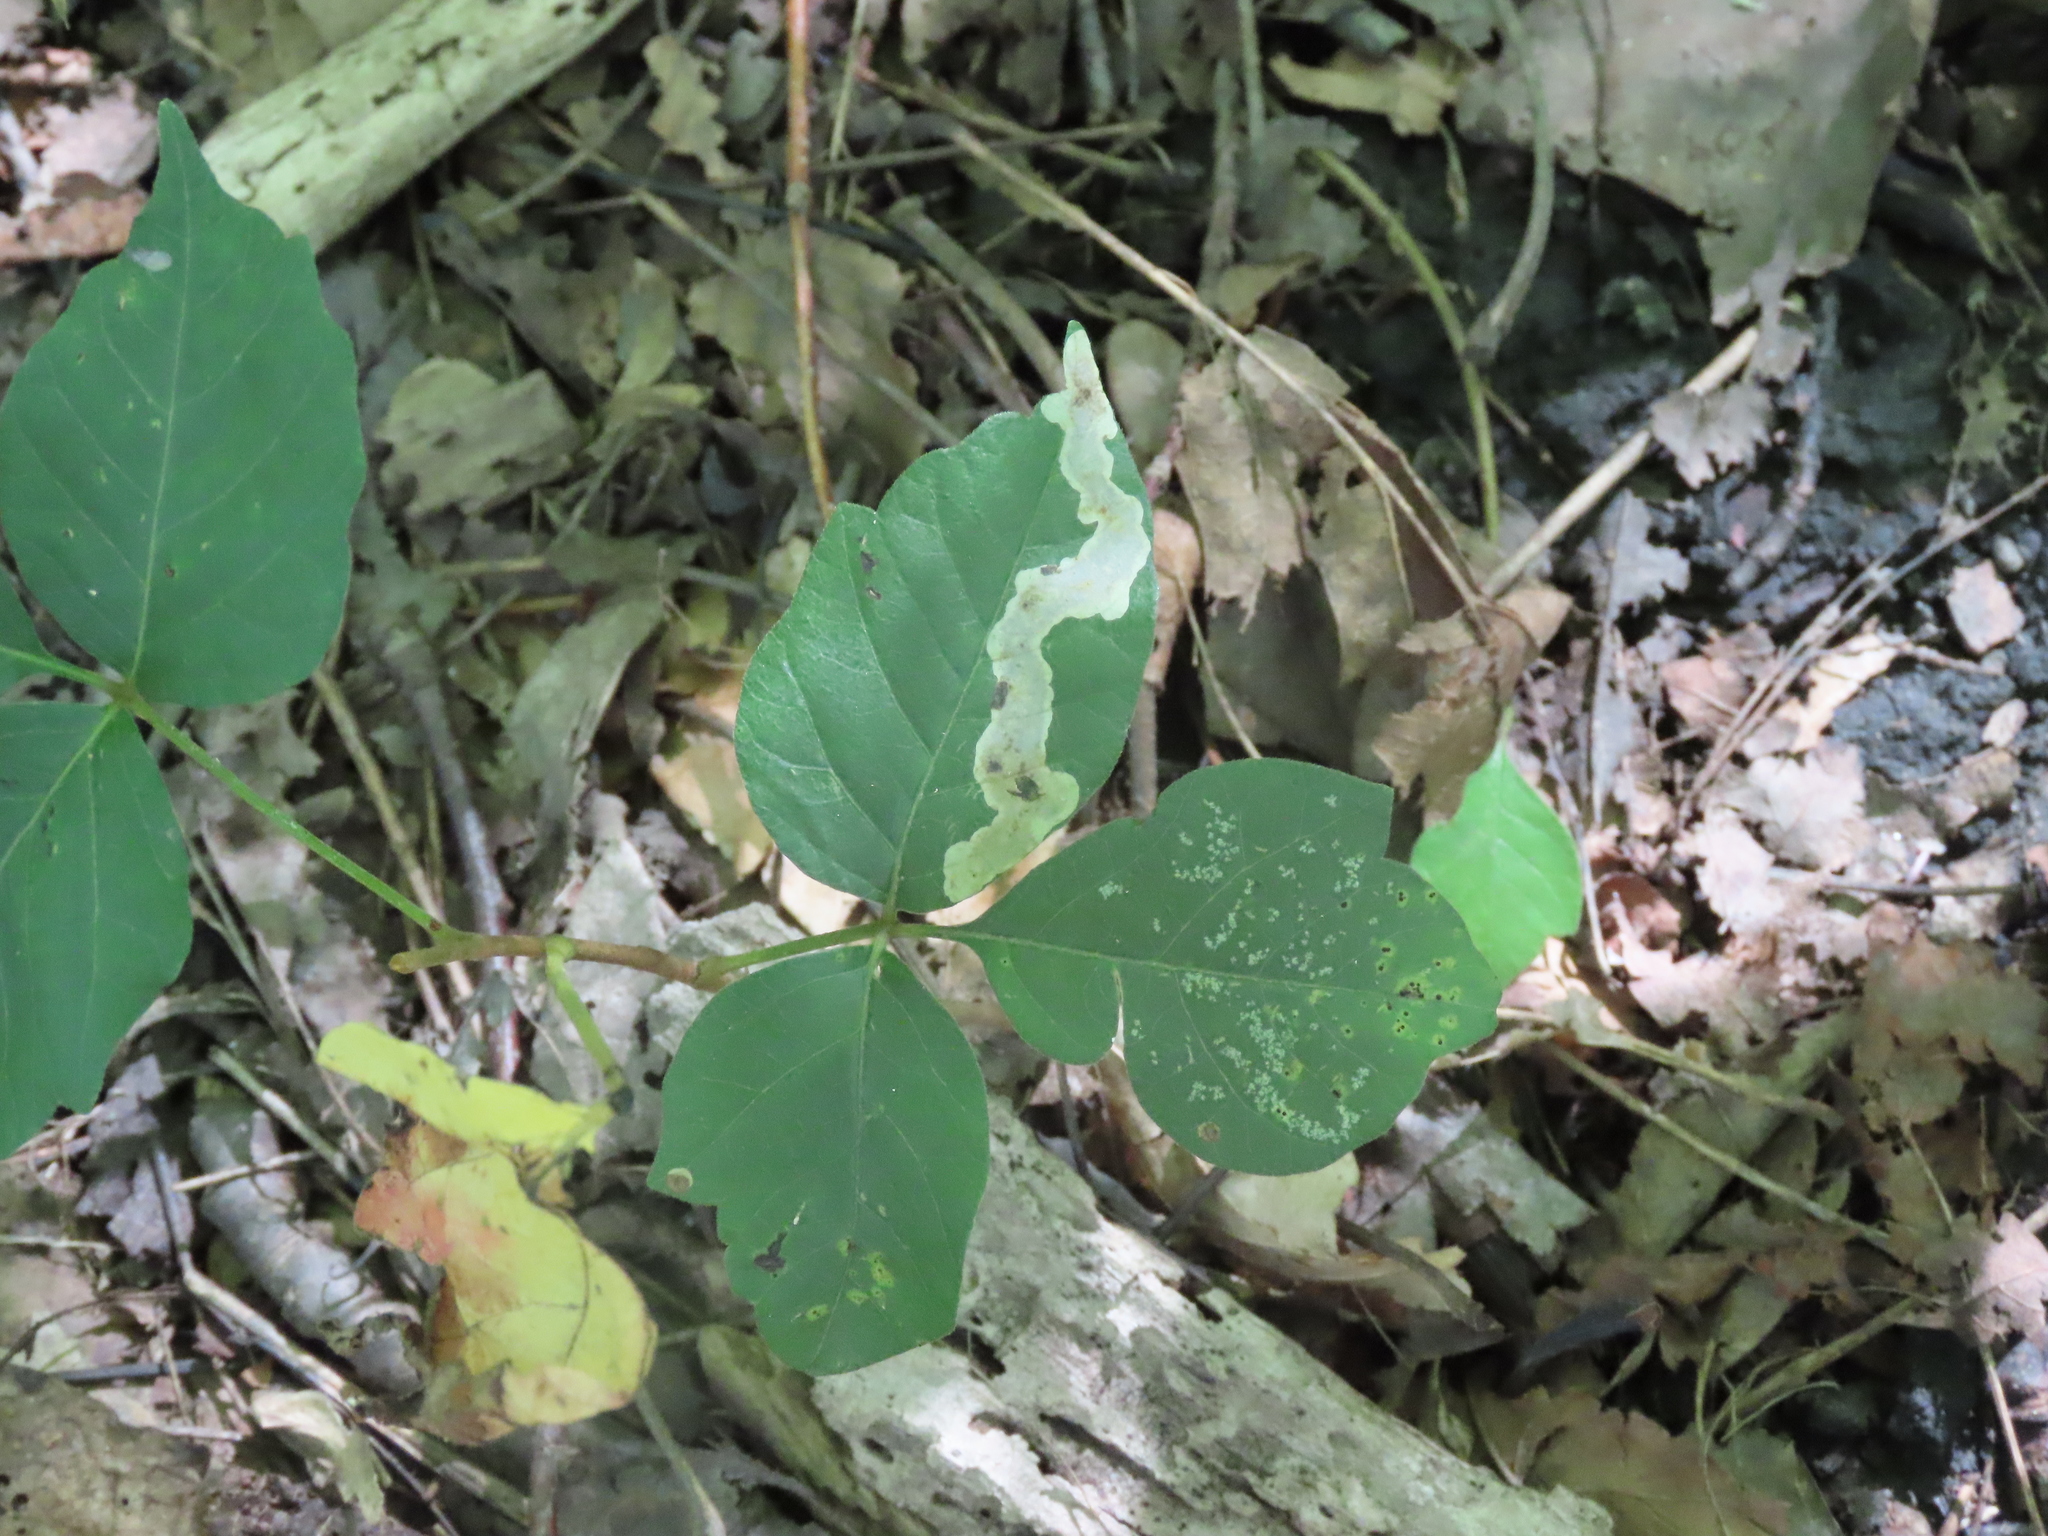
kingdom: Animalia
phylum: Arthropoda
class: Insecta
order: Lepidoptera
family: Gracillariidae
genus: Cameraria
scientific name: Cameraria guttifinitella
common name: Poison ivy leaf-miner moth
